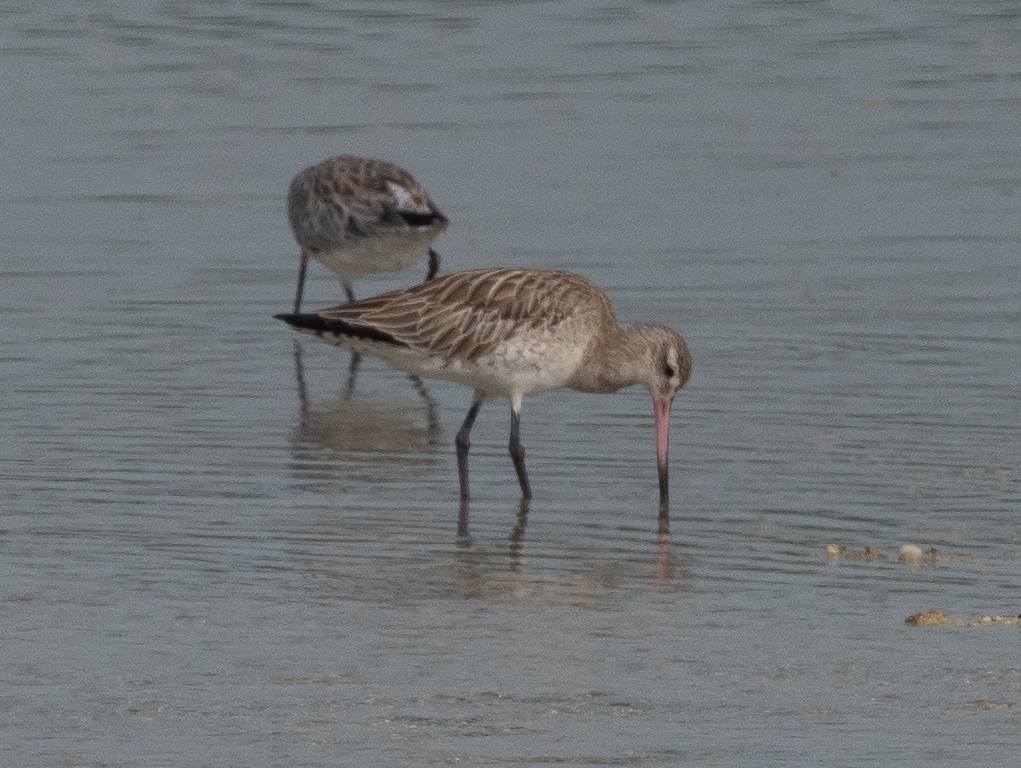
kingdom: Animalia
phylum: Chordata
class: Aves
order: Charadriiformes
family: Scolopacidae
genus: Limosa
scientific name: Limosa lapponica
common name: Bar-tailed godwit
